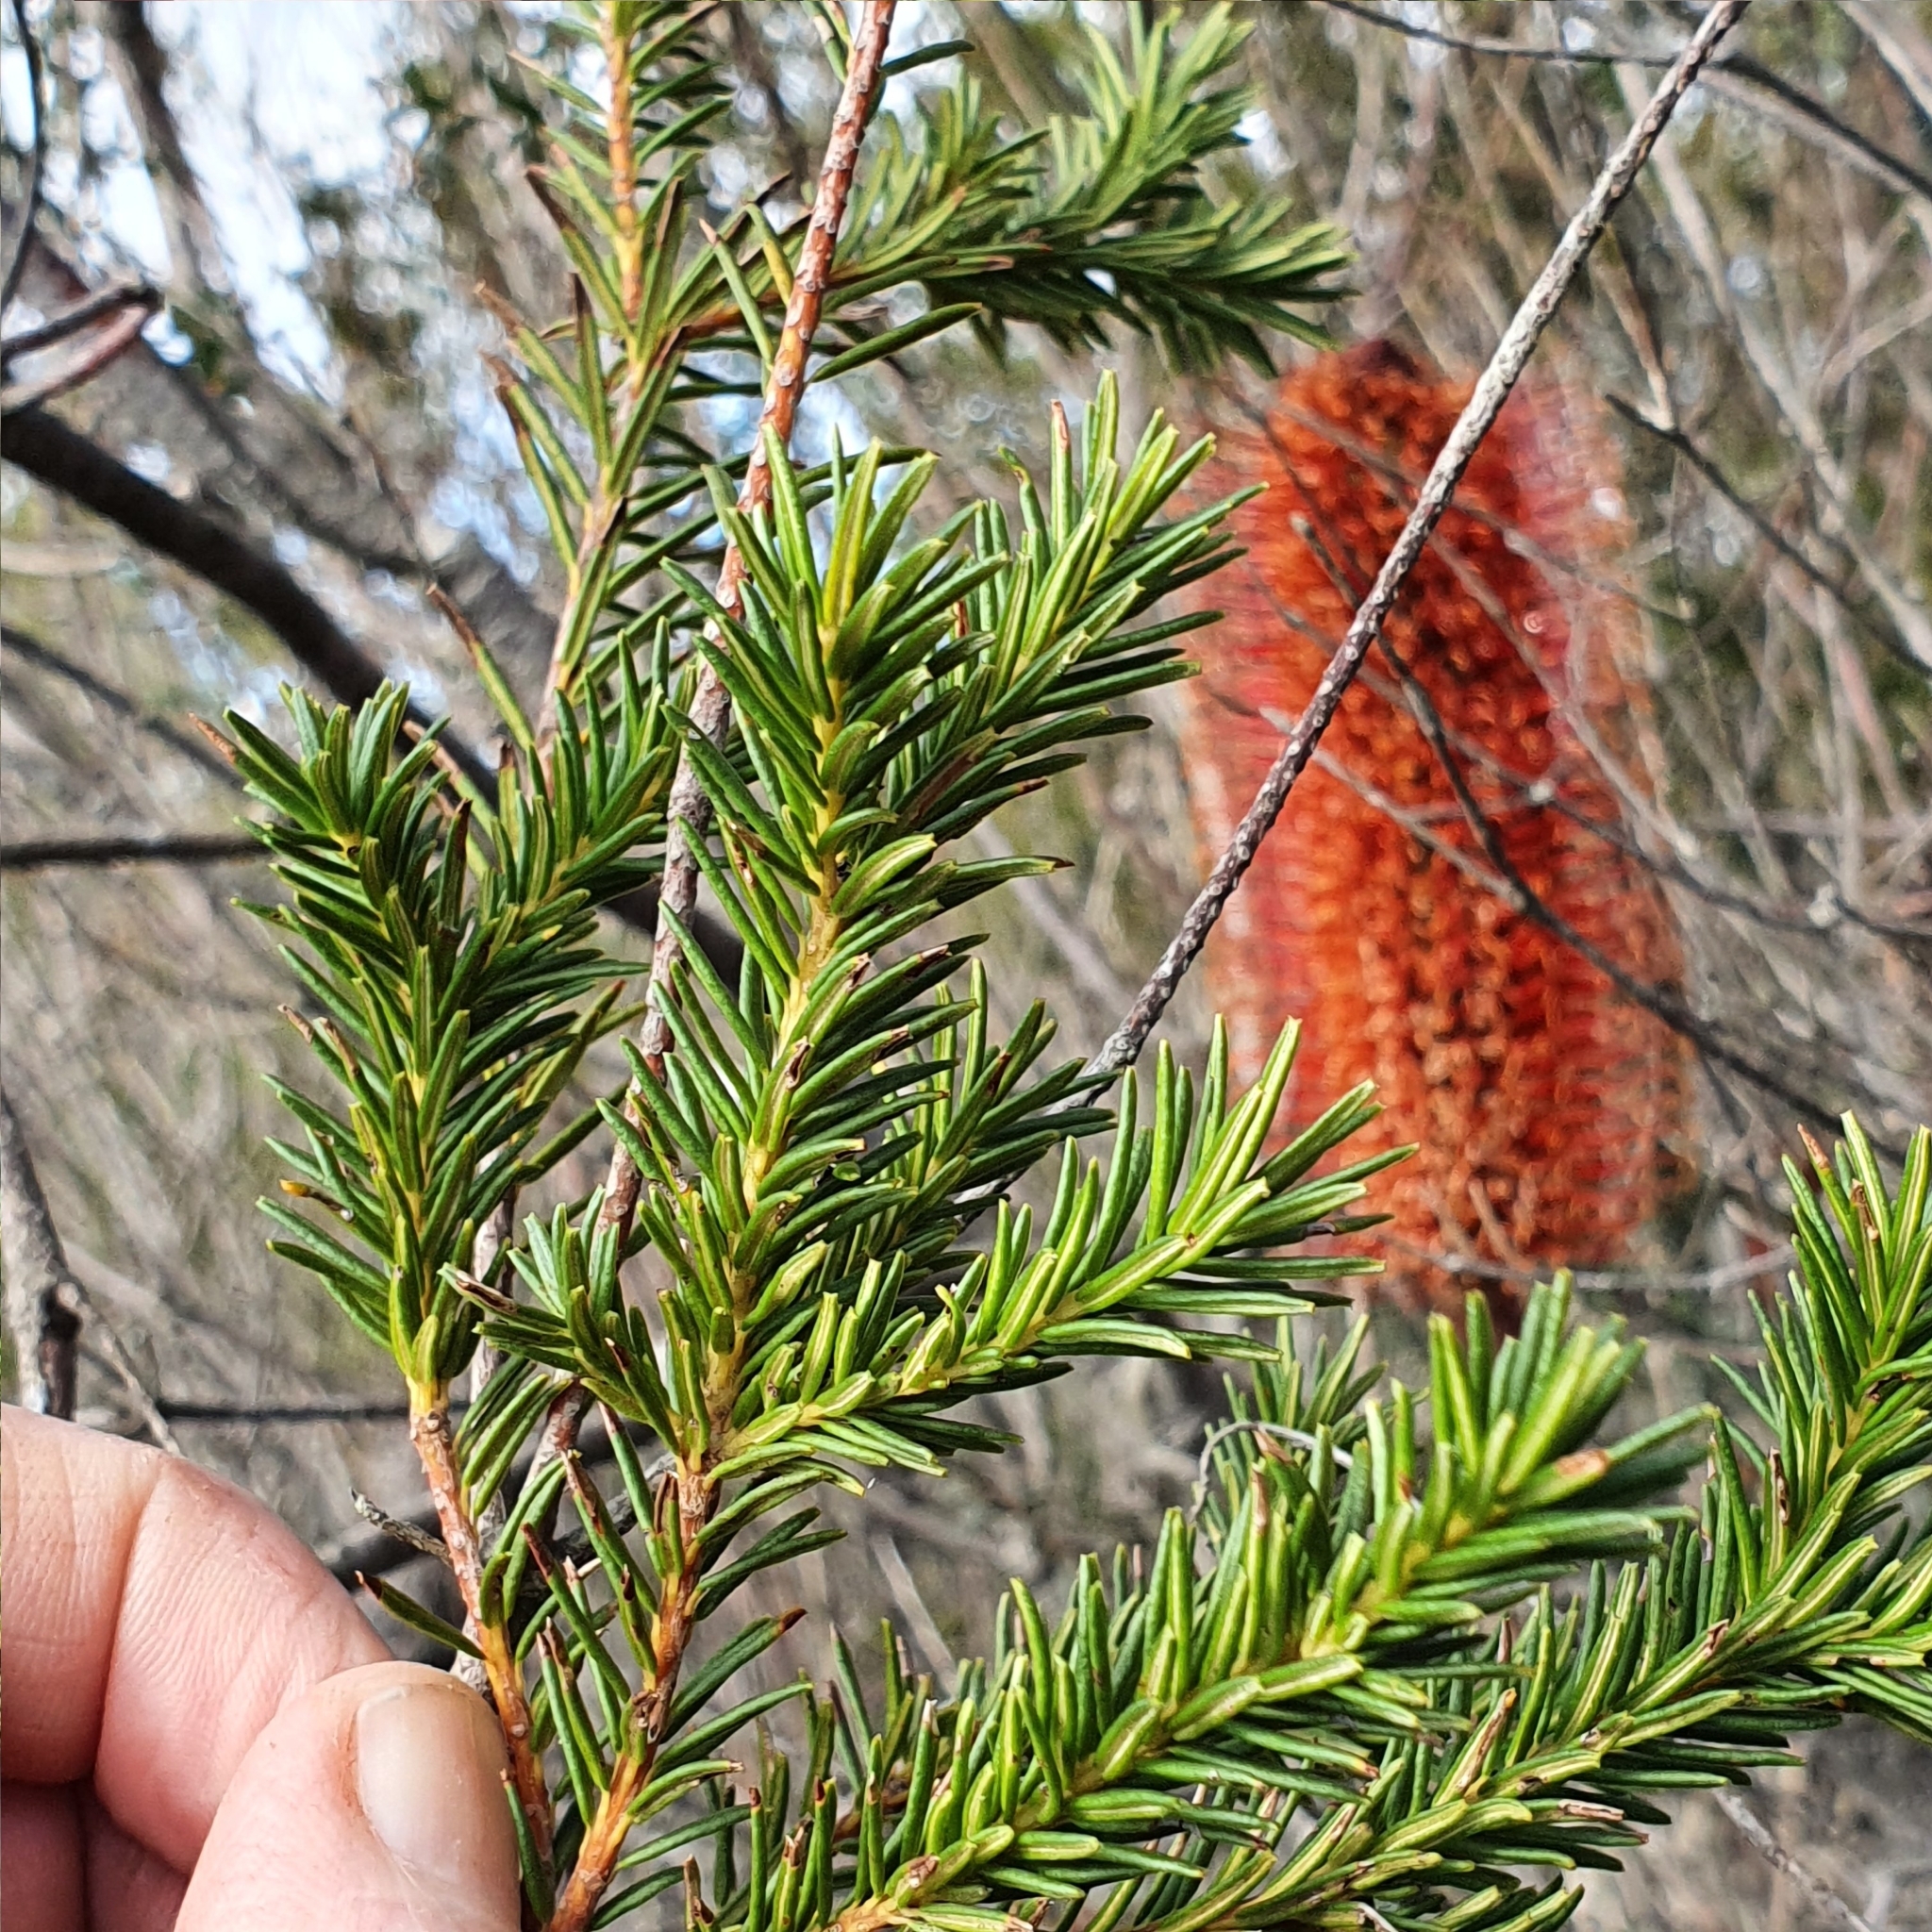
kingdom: Plantae
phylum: Tracheophyta
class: Magnoliopsida
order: Proteales
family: Proteaceae
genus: Banksia
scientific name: Banksia ericifolia
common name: Heath-leaf banksia
